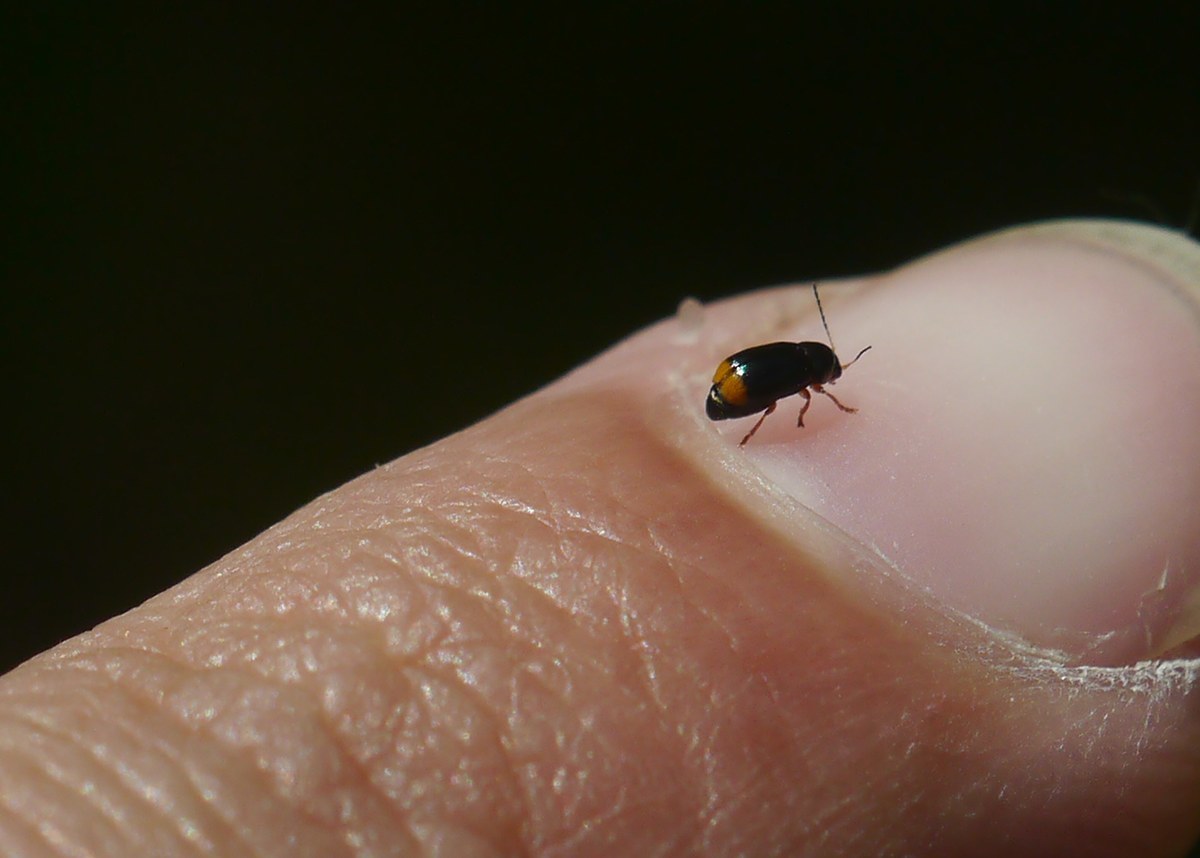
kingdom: Animalia
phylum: Arthropoda
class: Insecta
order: Coleoptera
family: Chrysomelidae
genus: Cryptocephalus
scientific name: Cryptocephalus chrysopus
